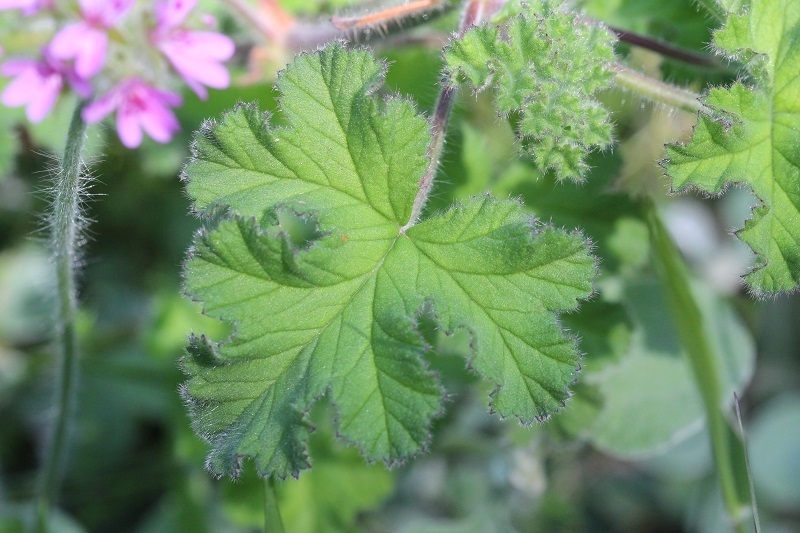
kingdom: Plantae
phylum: Tracheophyta
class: Magnoliopsida
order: Geraniales
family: Geraniaceae
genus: Pelargonium
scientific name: Pelargonium capitatum
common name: Rose scented geranium
